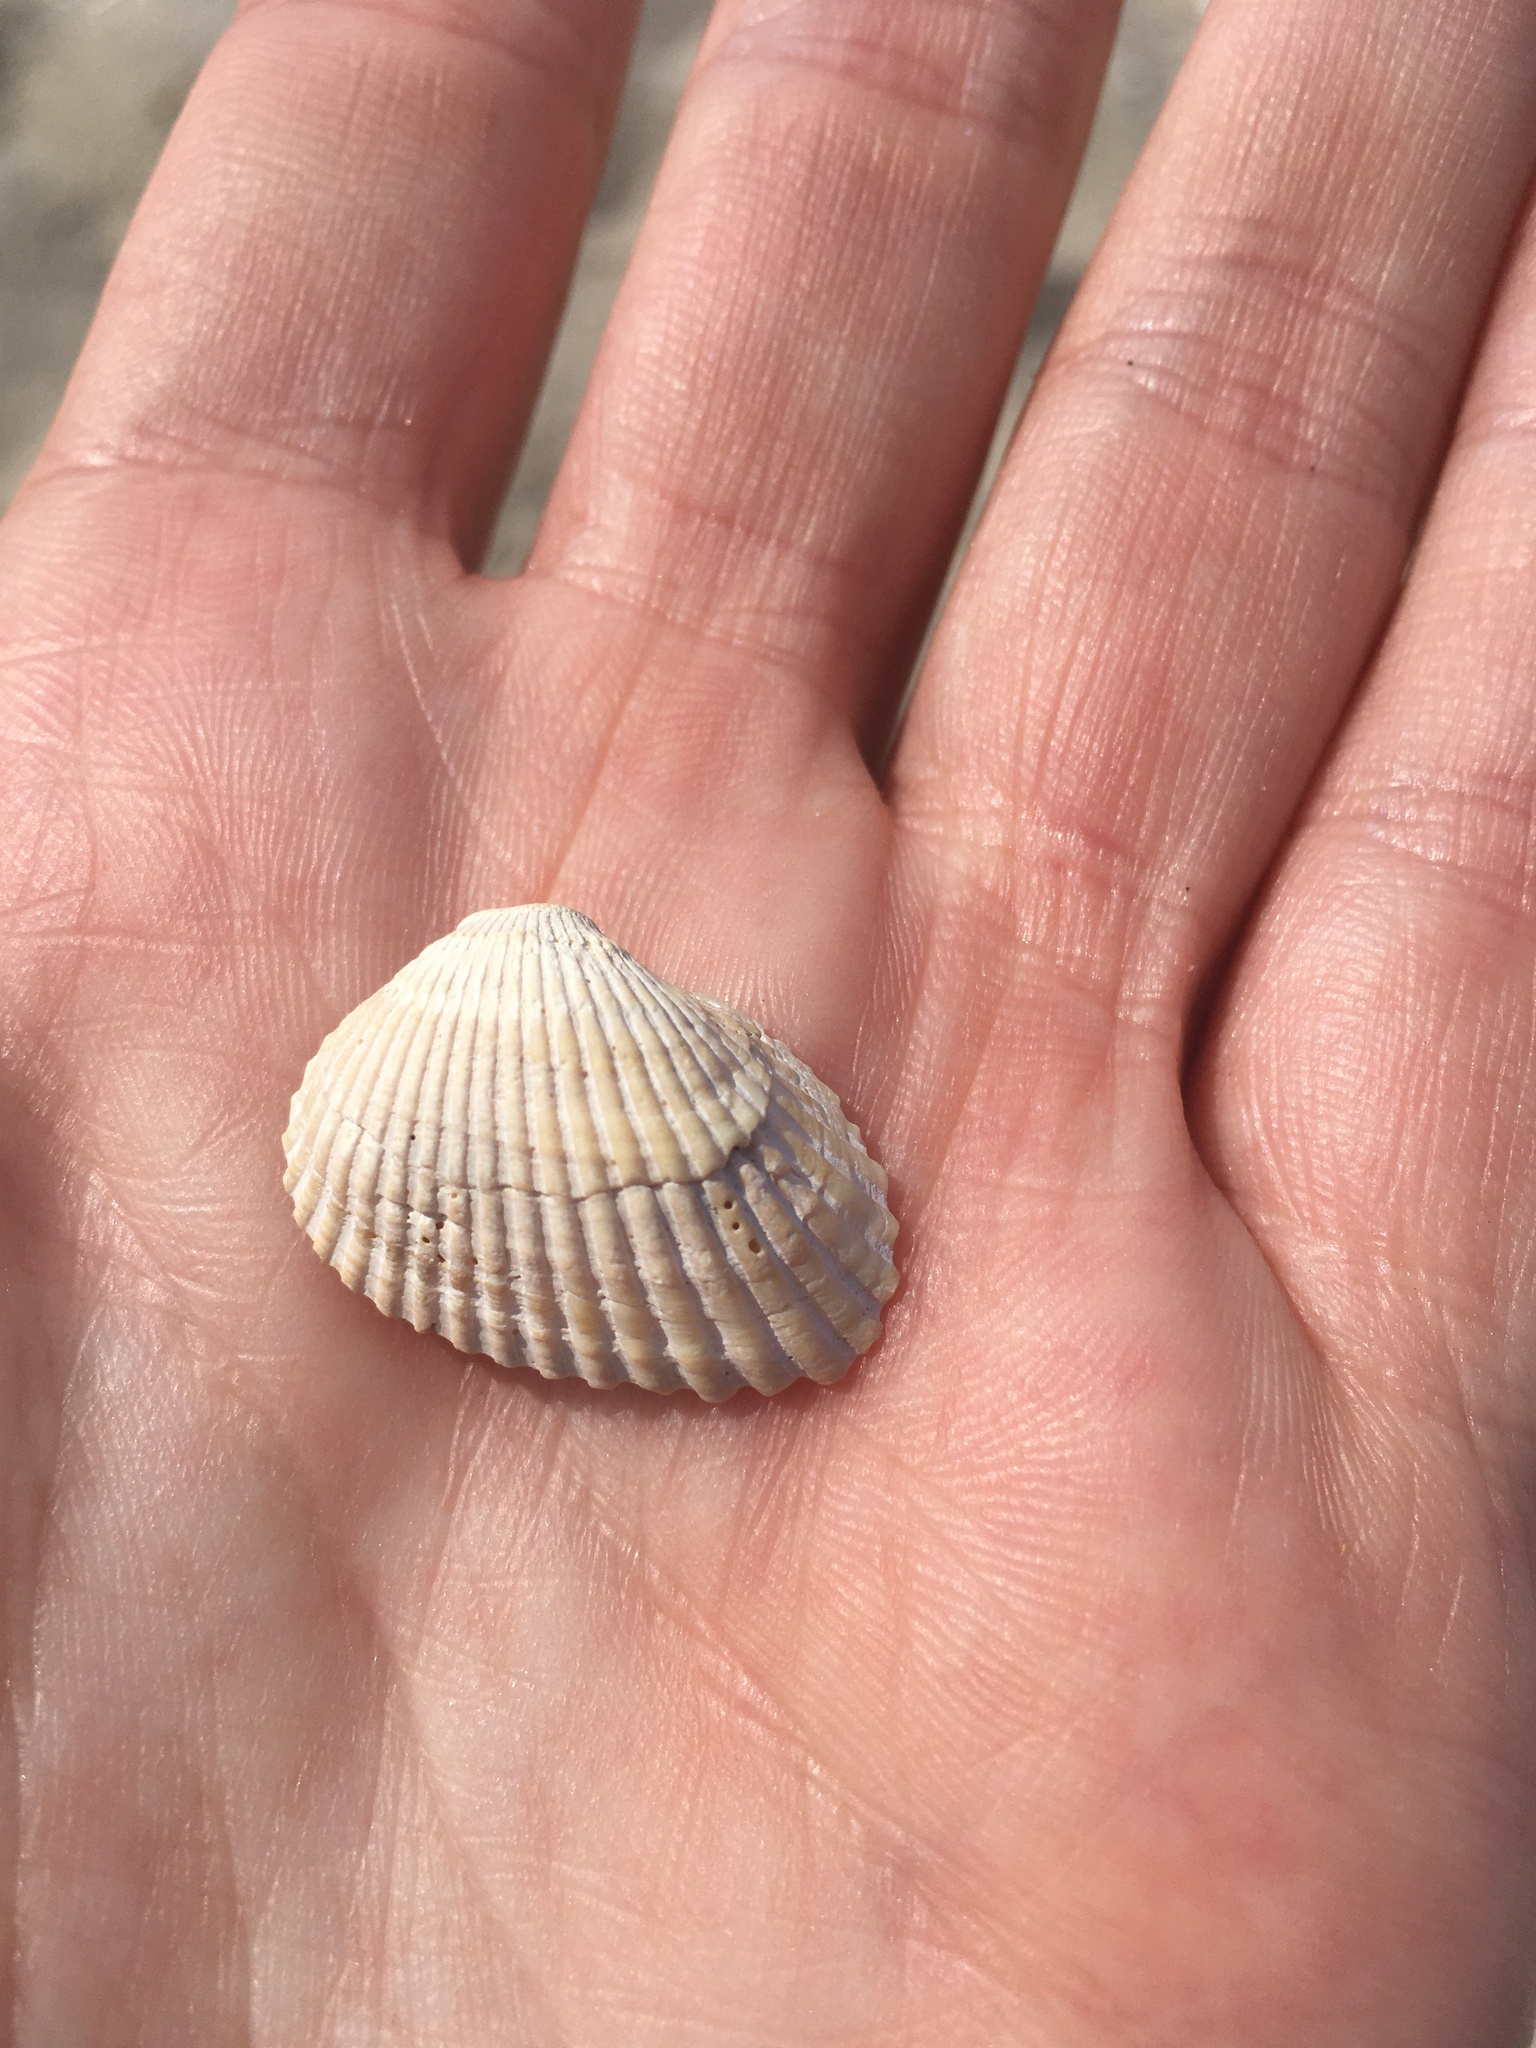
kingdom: Animalia
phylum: Mollusca
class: Bivalvia
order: Arcida
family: Arcidae
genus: Anadara
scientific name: Anadara transversa
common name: Transverse ark
